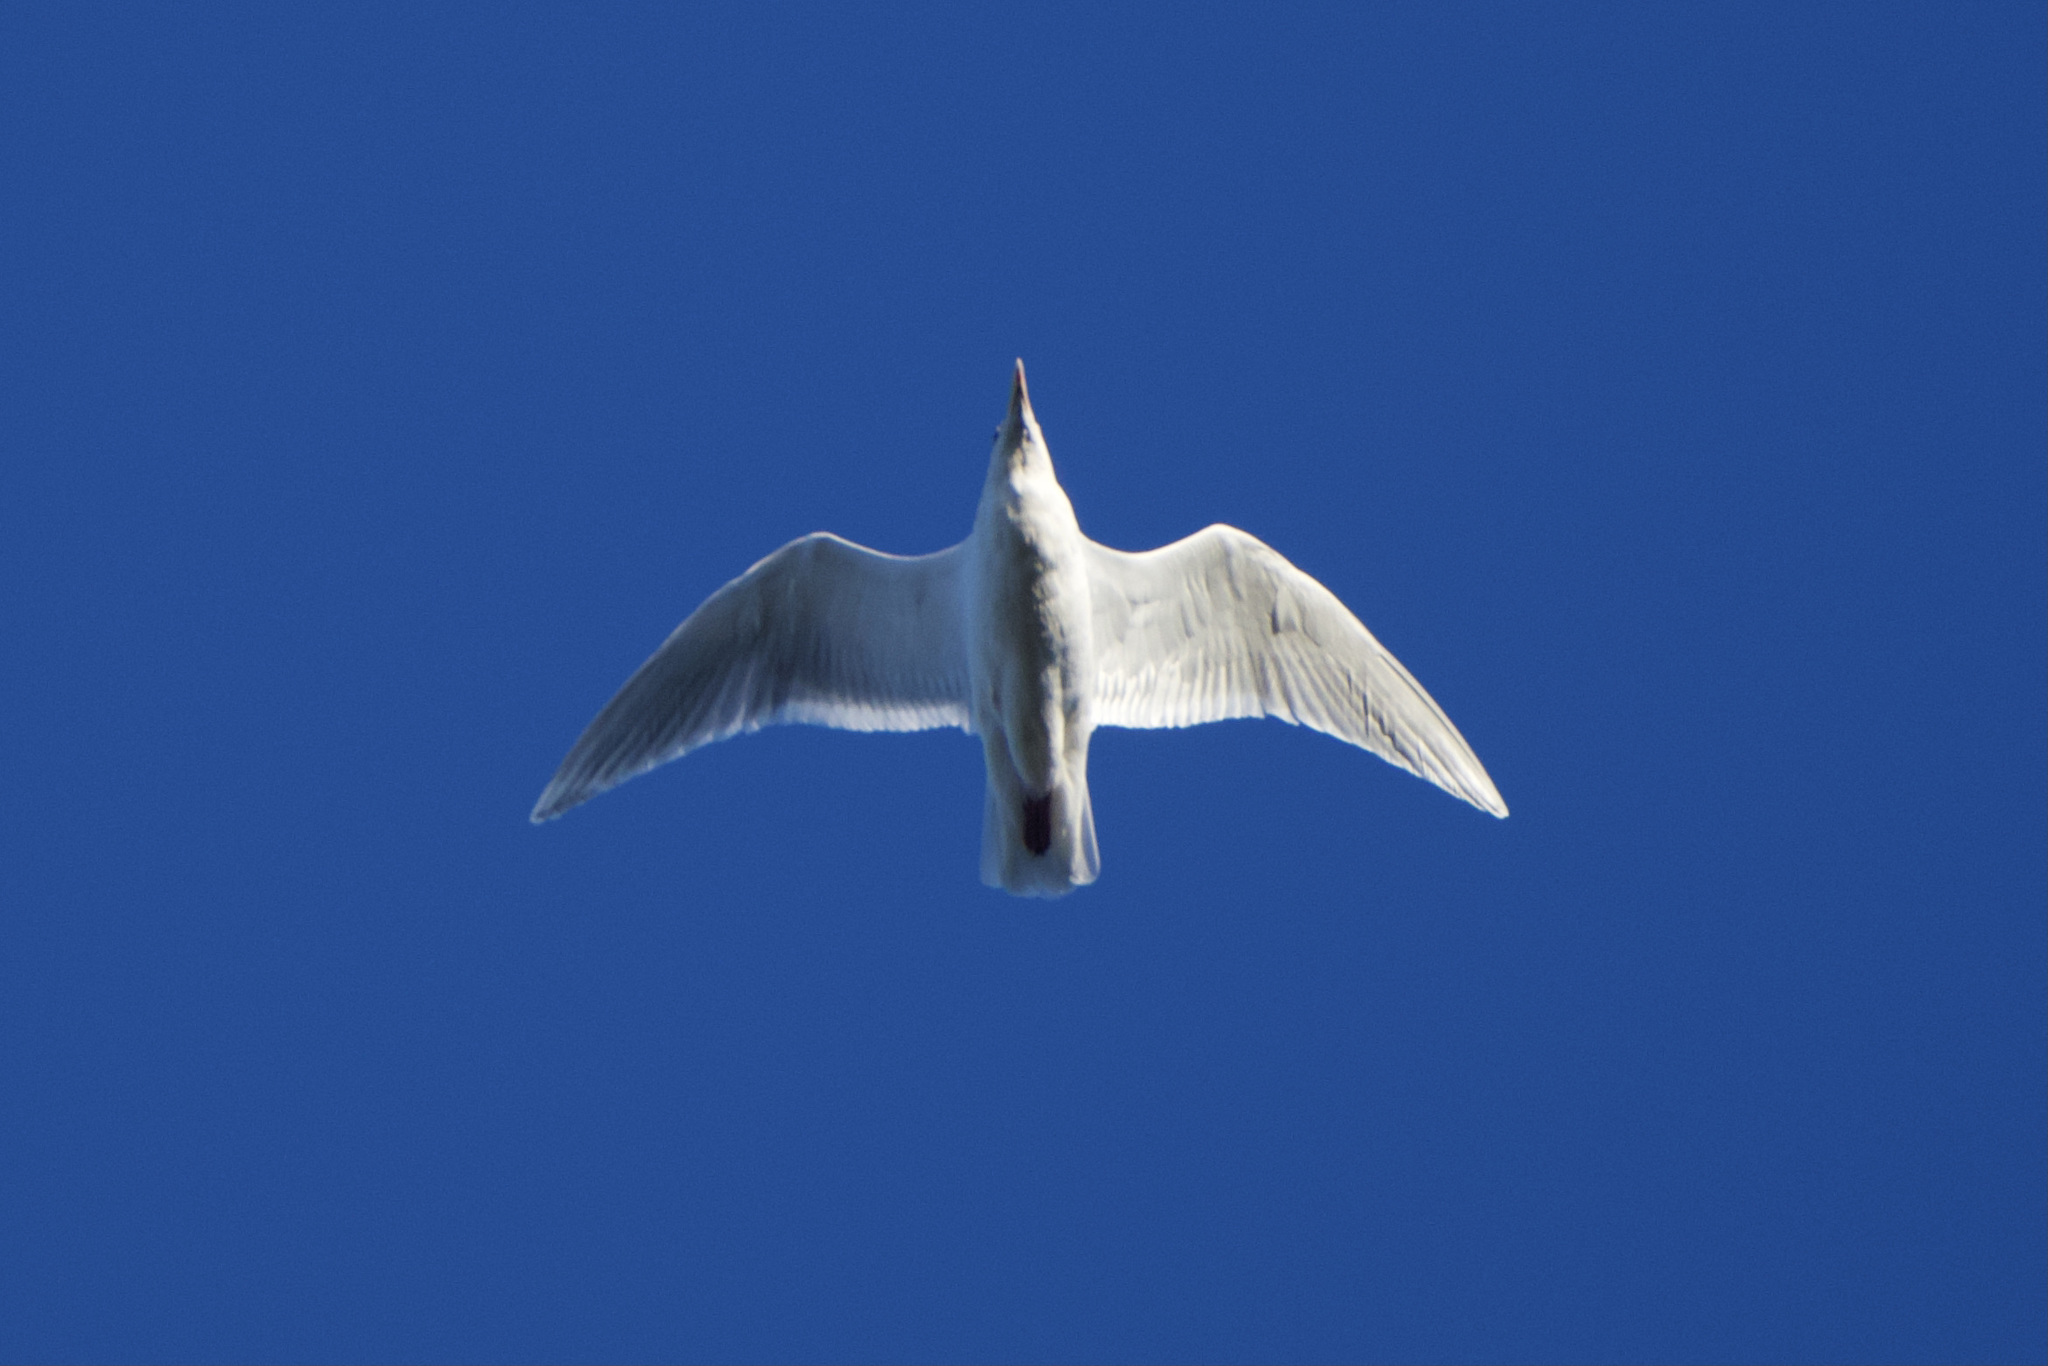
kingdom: Animalia
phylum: Chordata
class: Aves
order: Charadriiformes
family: Laridae
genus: Larus
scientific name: Larus glaucescens
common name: Glaucous-winged gull
